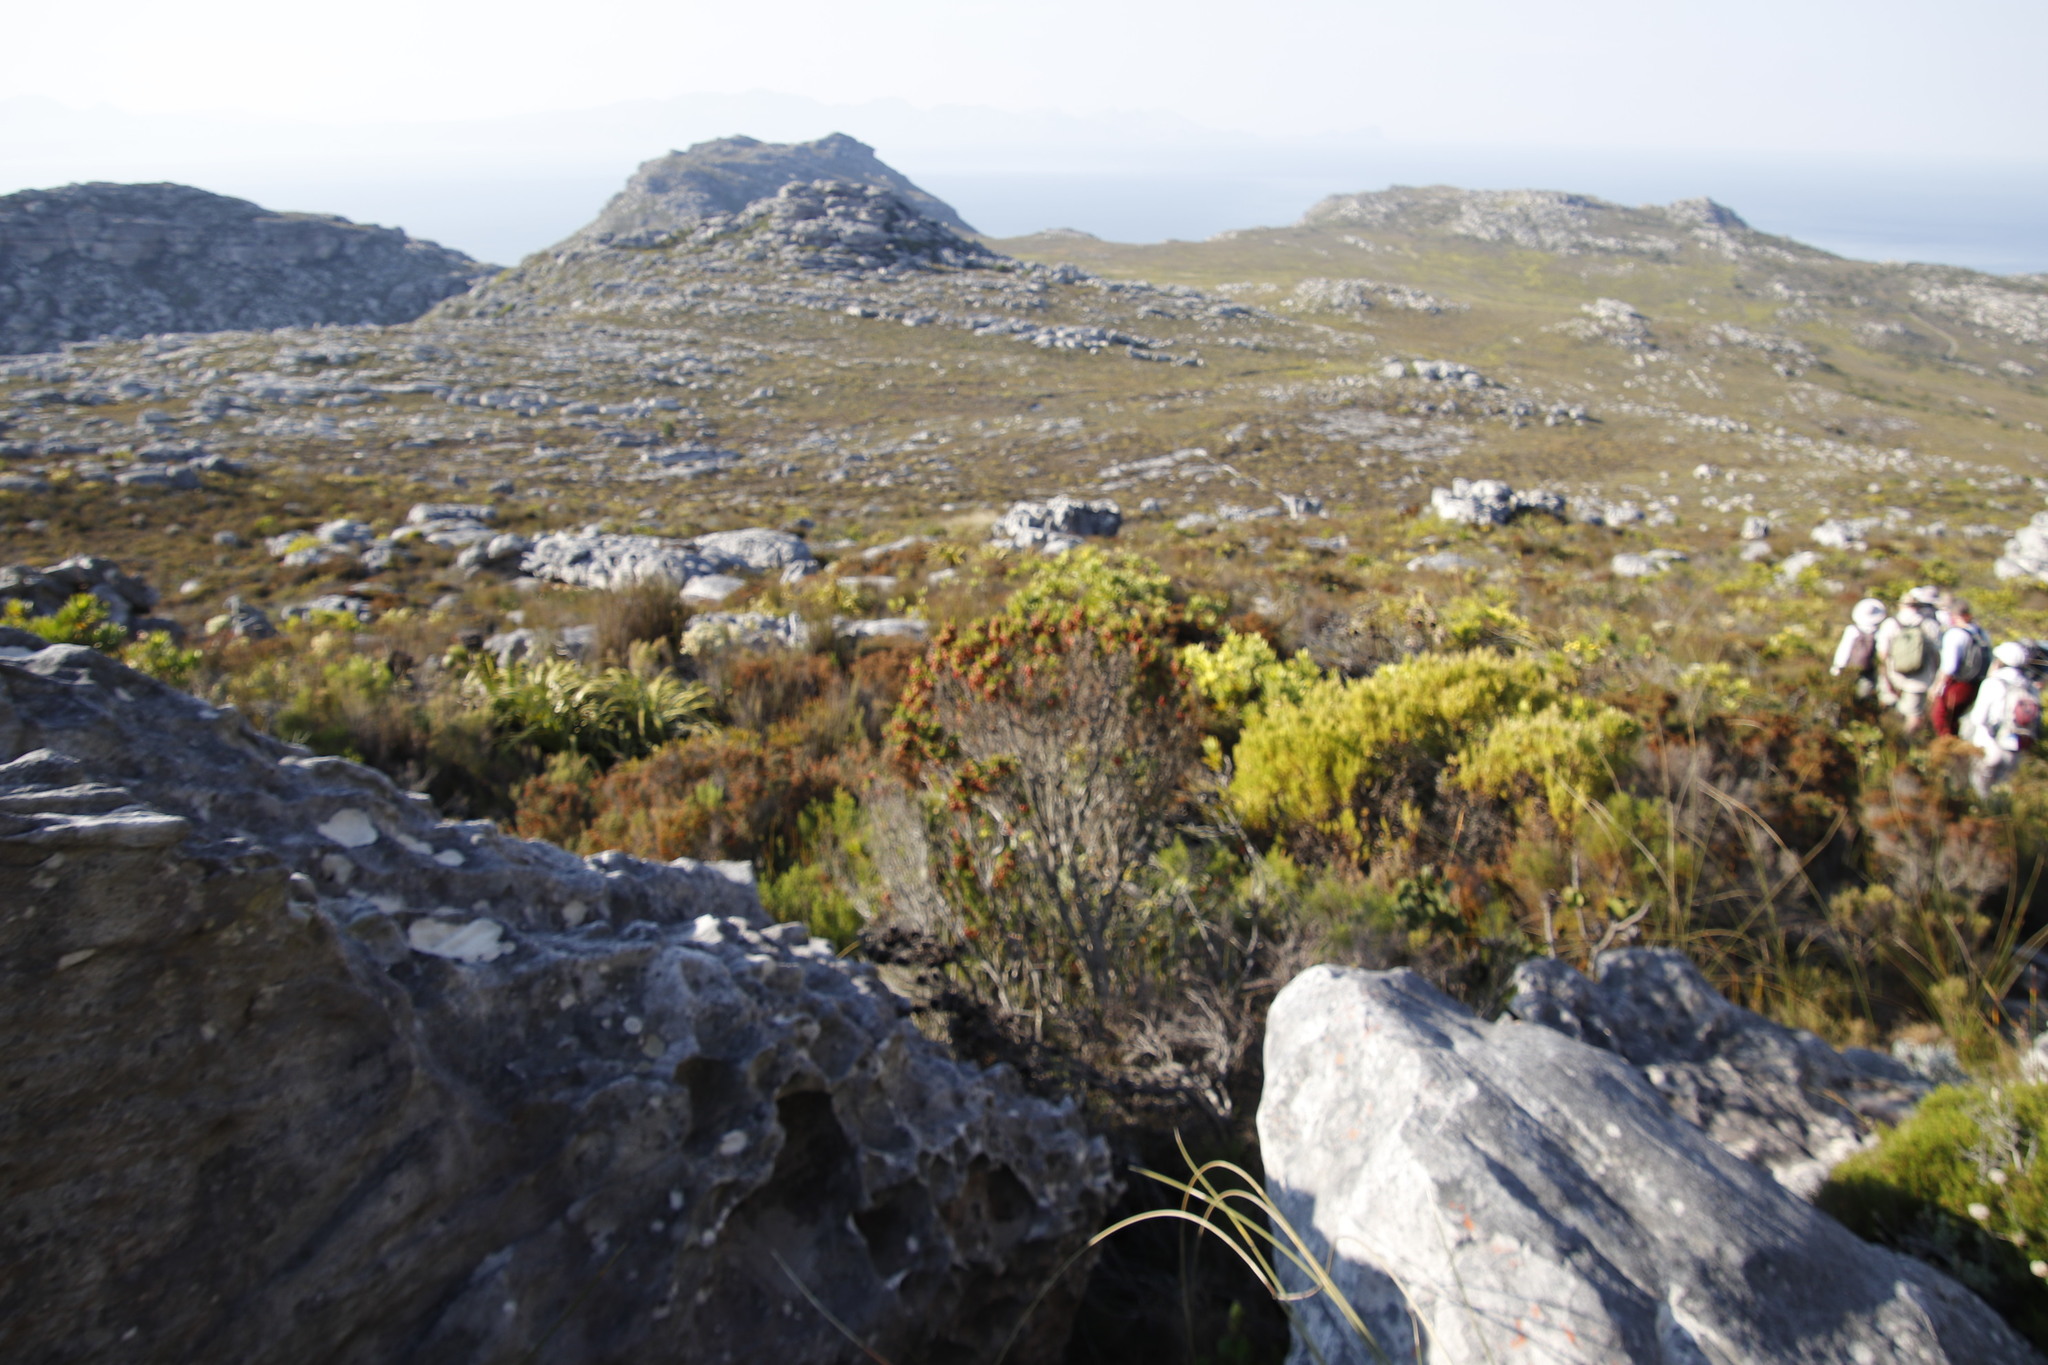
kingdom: Plantae
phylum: Tracheophyta
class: Magnoliopsida
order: Ericales
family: Ericaceae
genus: Erica
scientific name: Erica plukenetii
